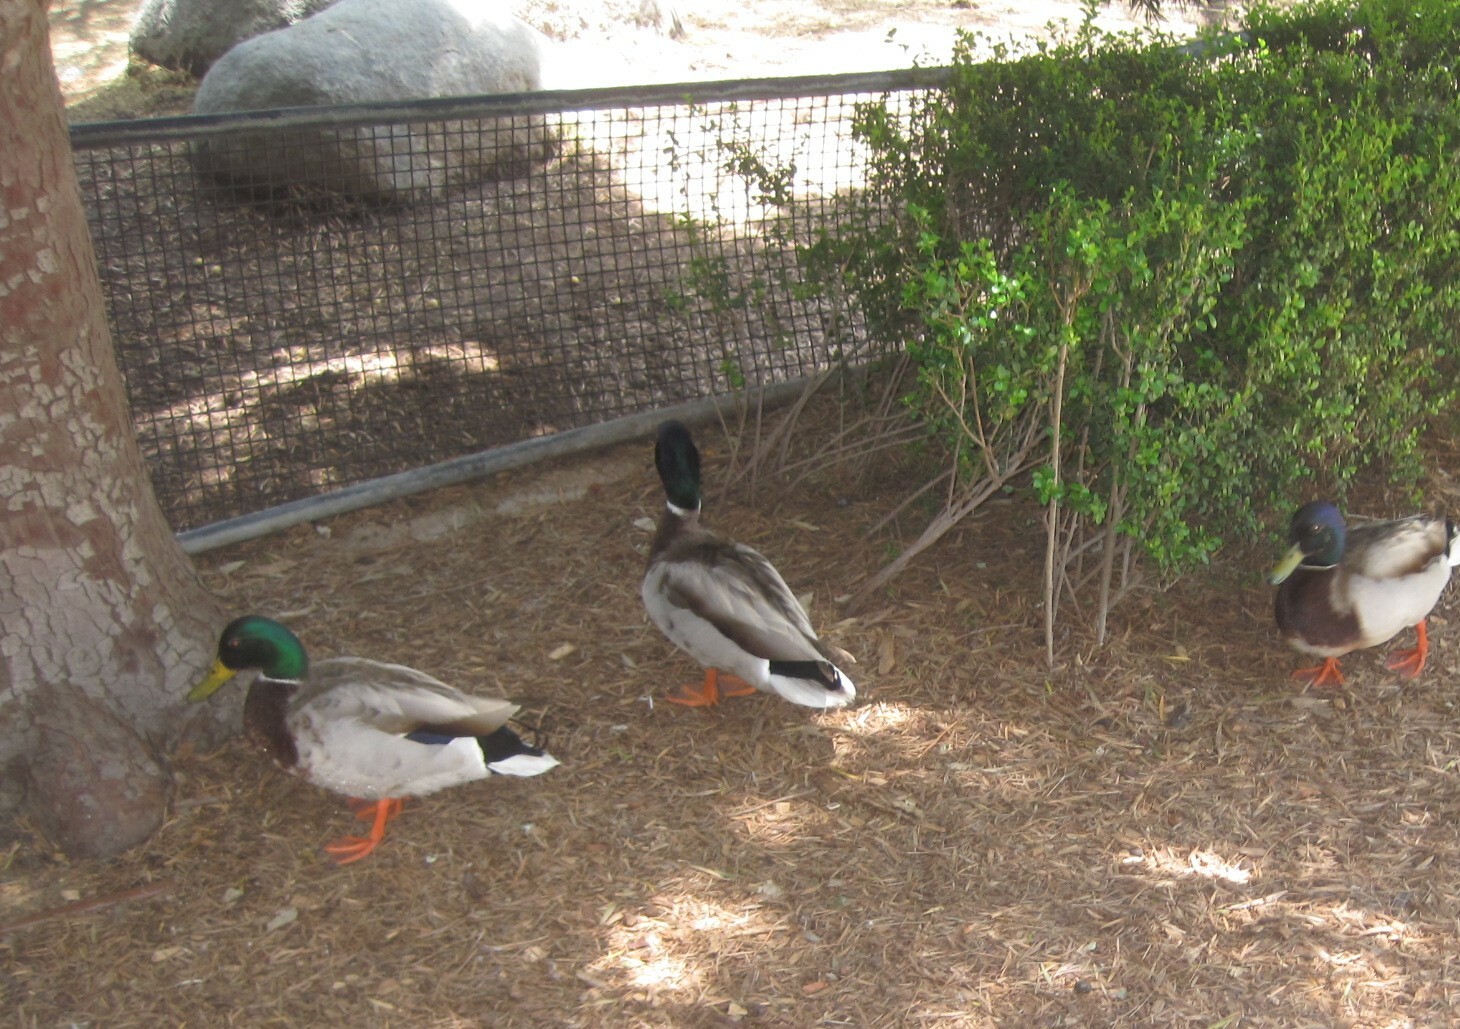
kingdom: Animalia
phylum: Chordata
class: Aves
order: Anseriformes
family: Anatidae
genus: Anas
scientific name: Anas platyrhynchos
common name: Mallard
